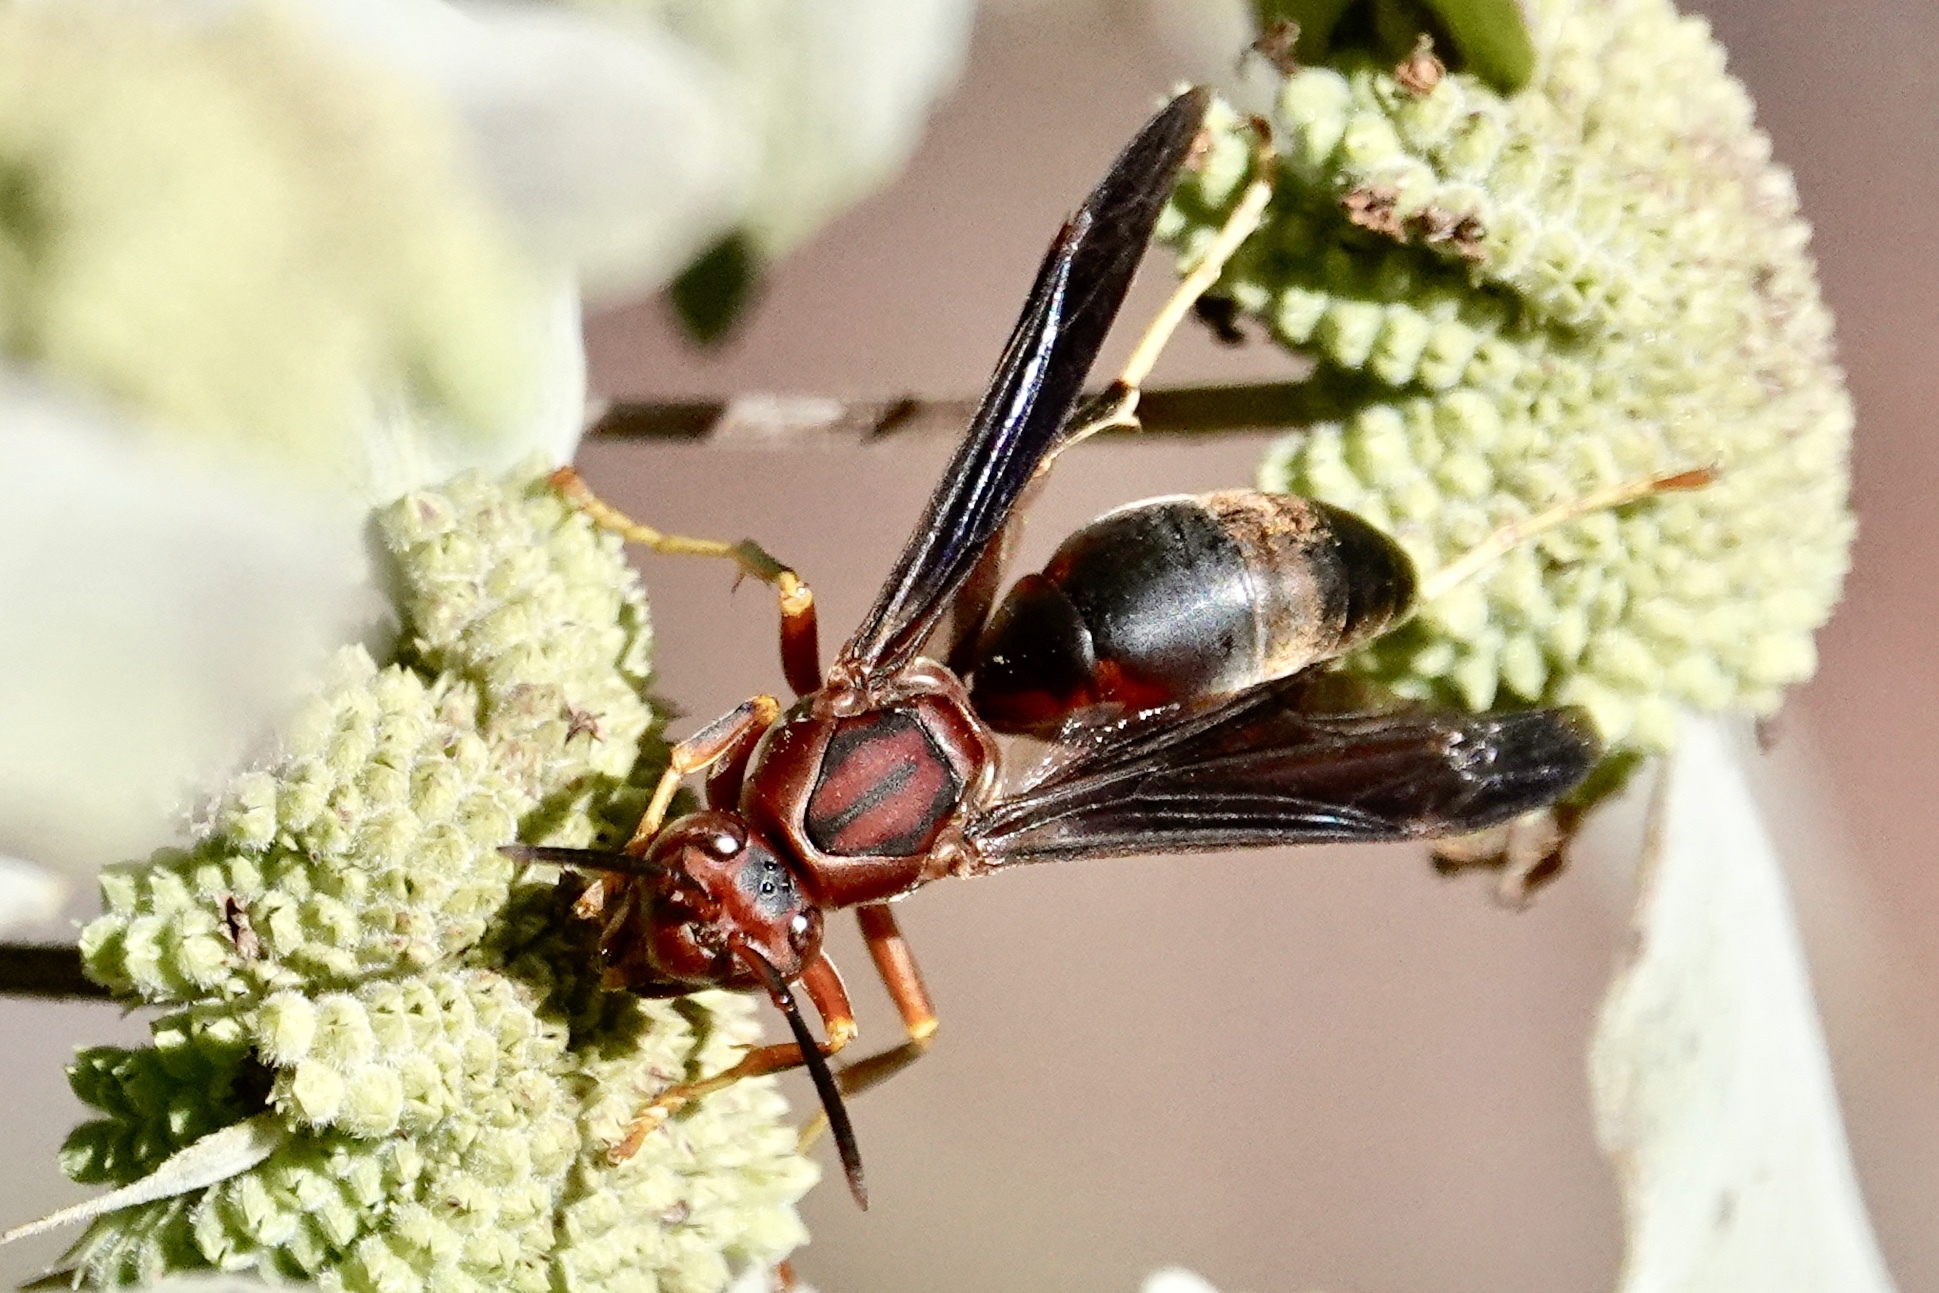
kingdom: Animalia
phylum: Arthropoda
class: Insecta
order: Hymenoptera
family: Eumenidae
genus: Polistes
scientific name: Polistes metricus
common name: Metric paper wasp
